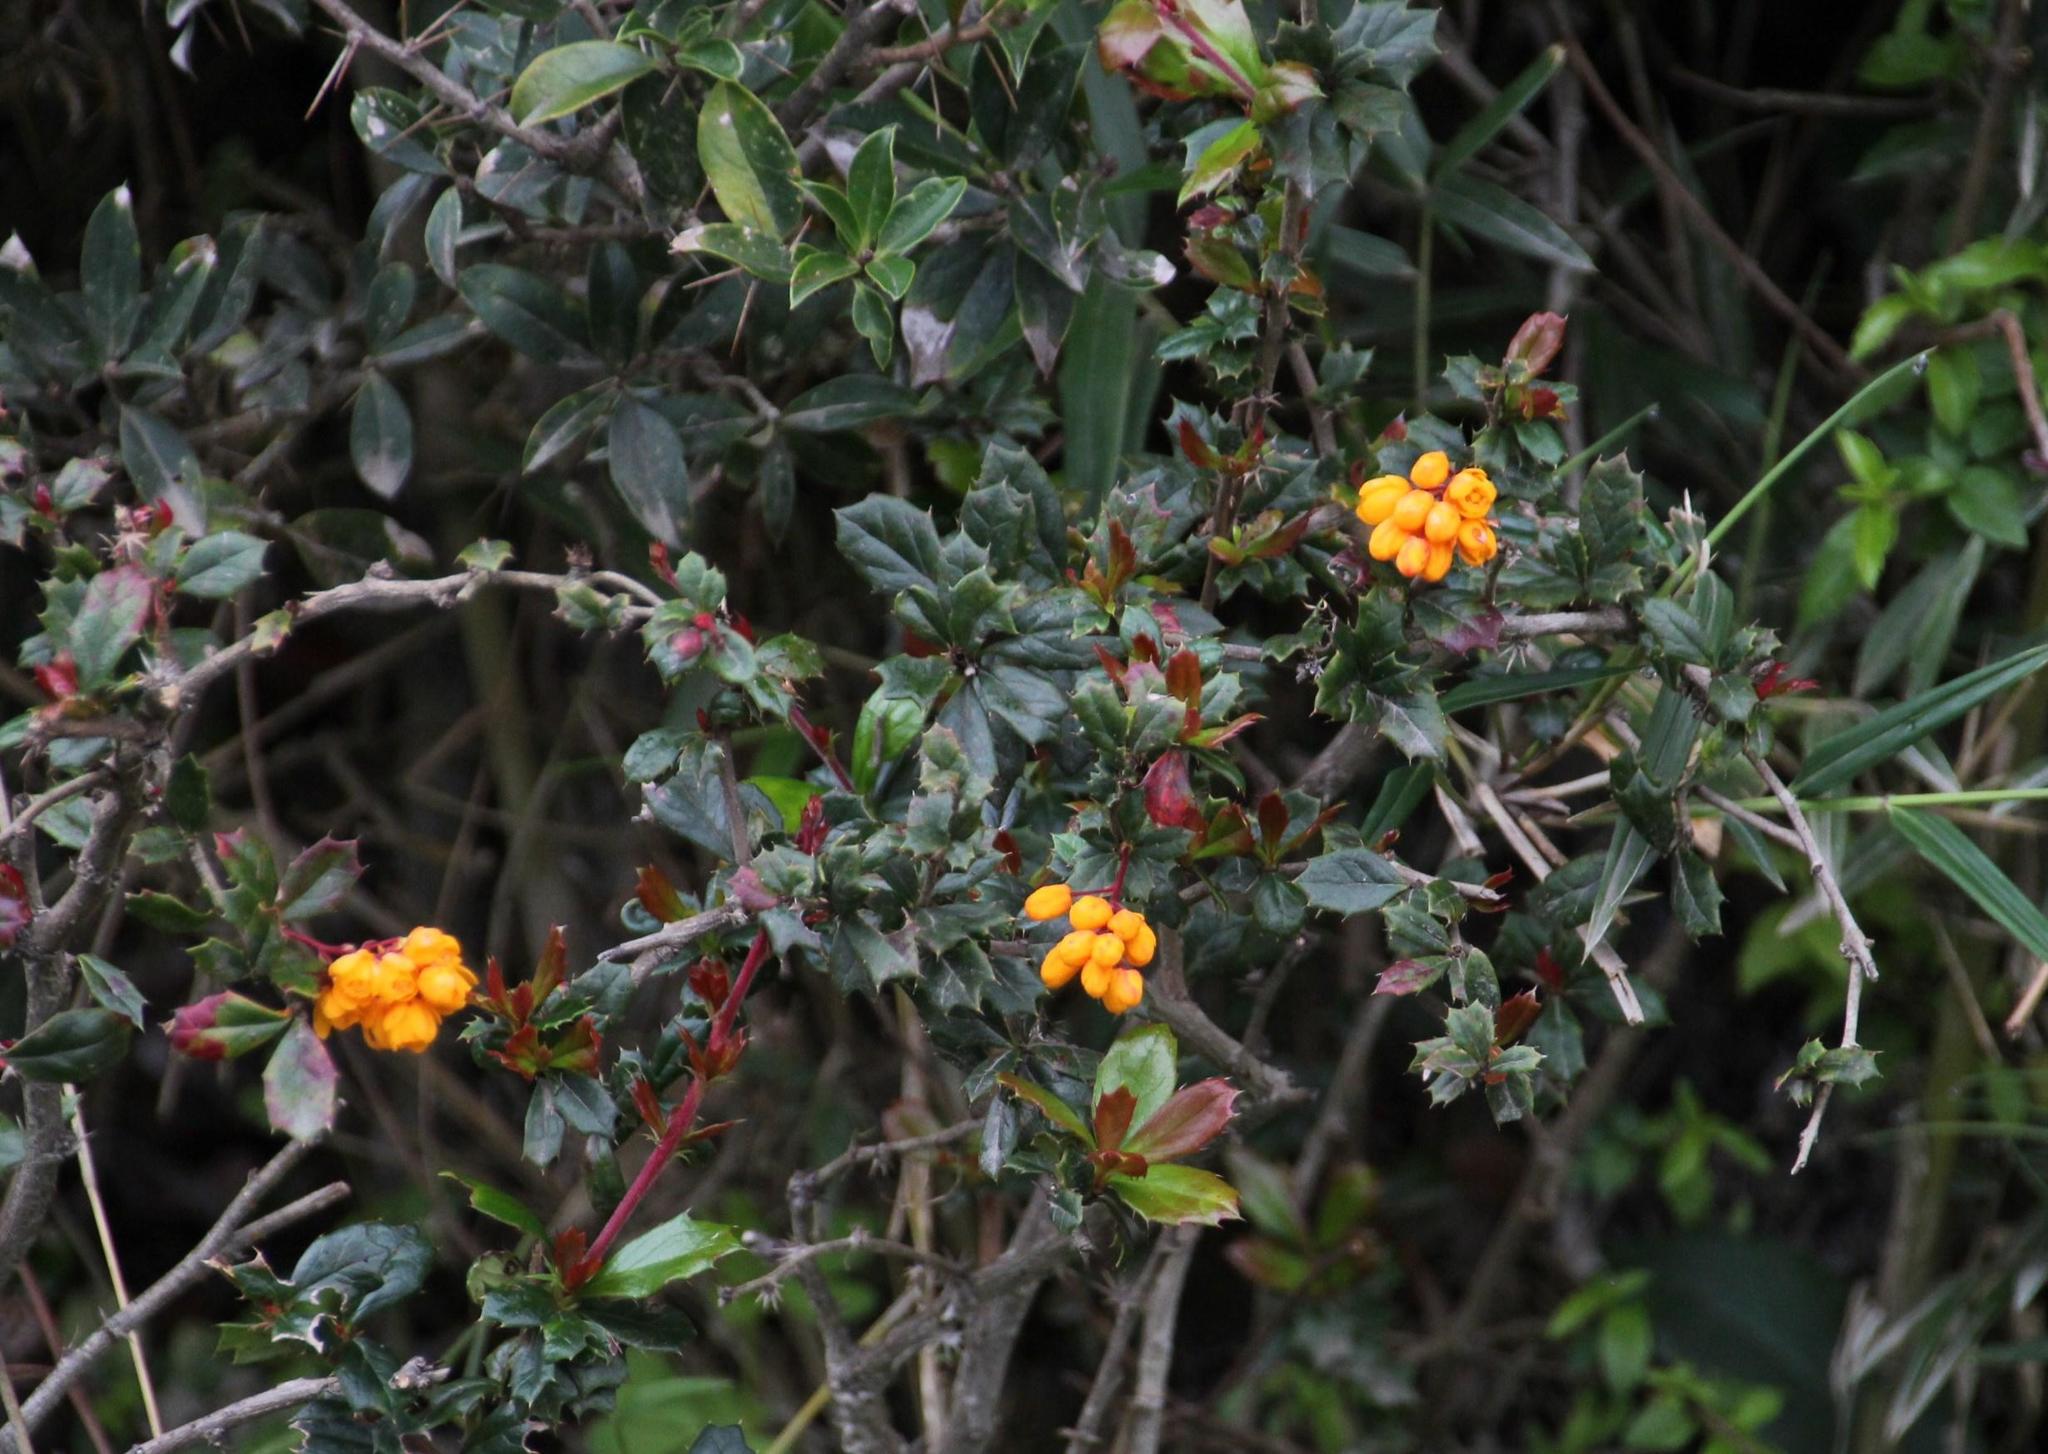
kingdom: Plantae
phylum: Tracheophyta
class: Magnoliopsida
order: Ranunculales
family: Berberidaceae
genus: Berberis
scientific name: Berberis darwinii
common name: Darwin's barberry
